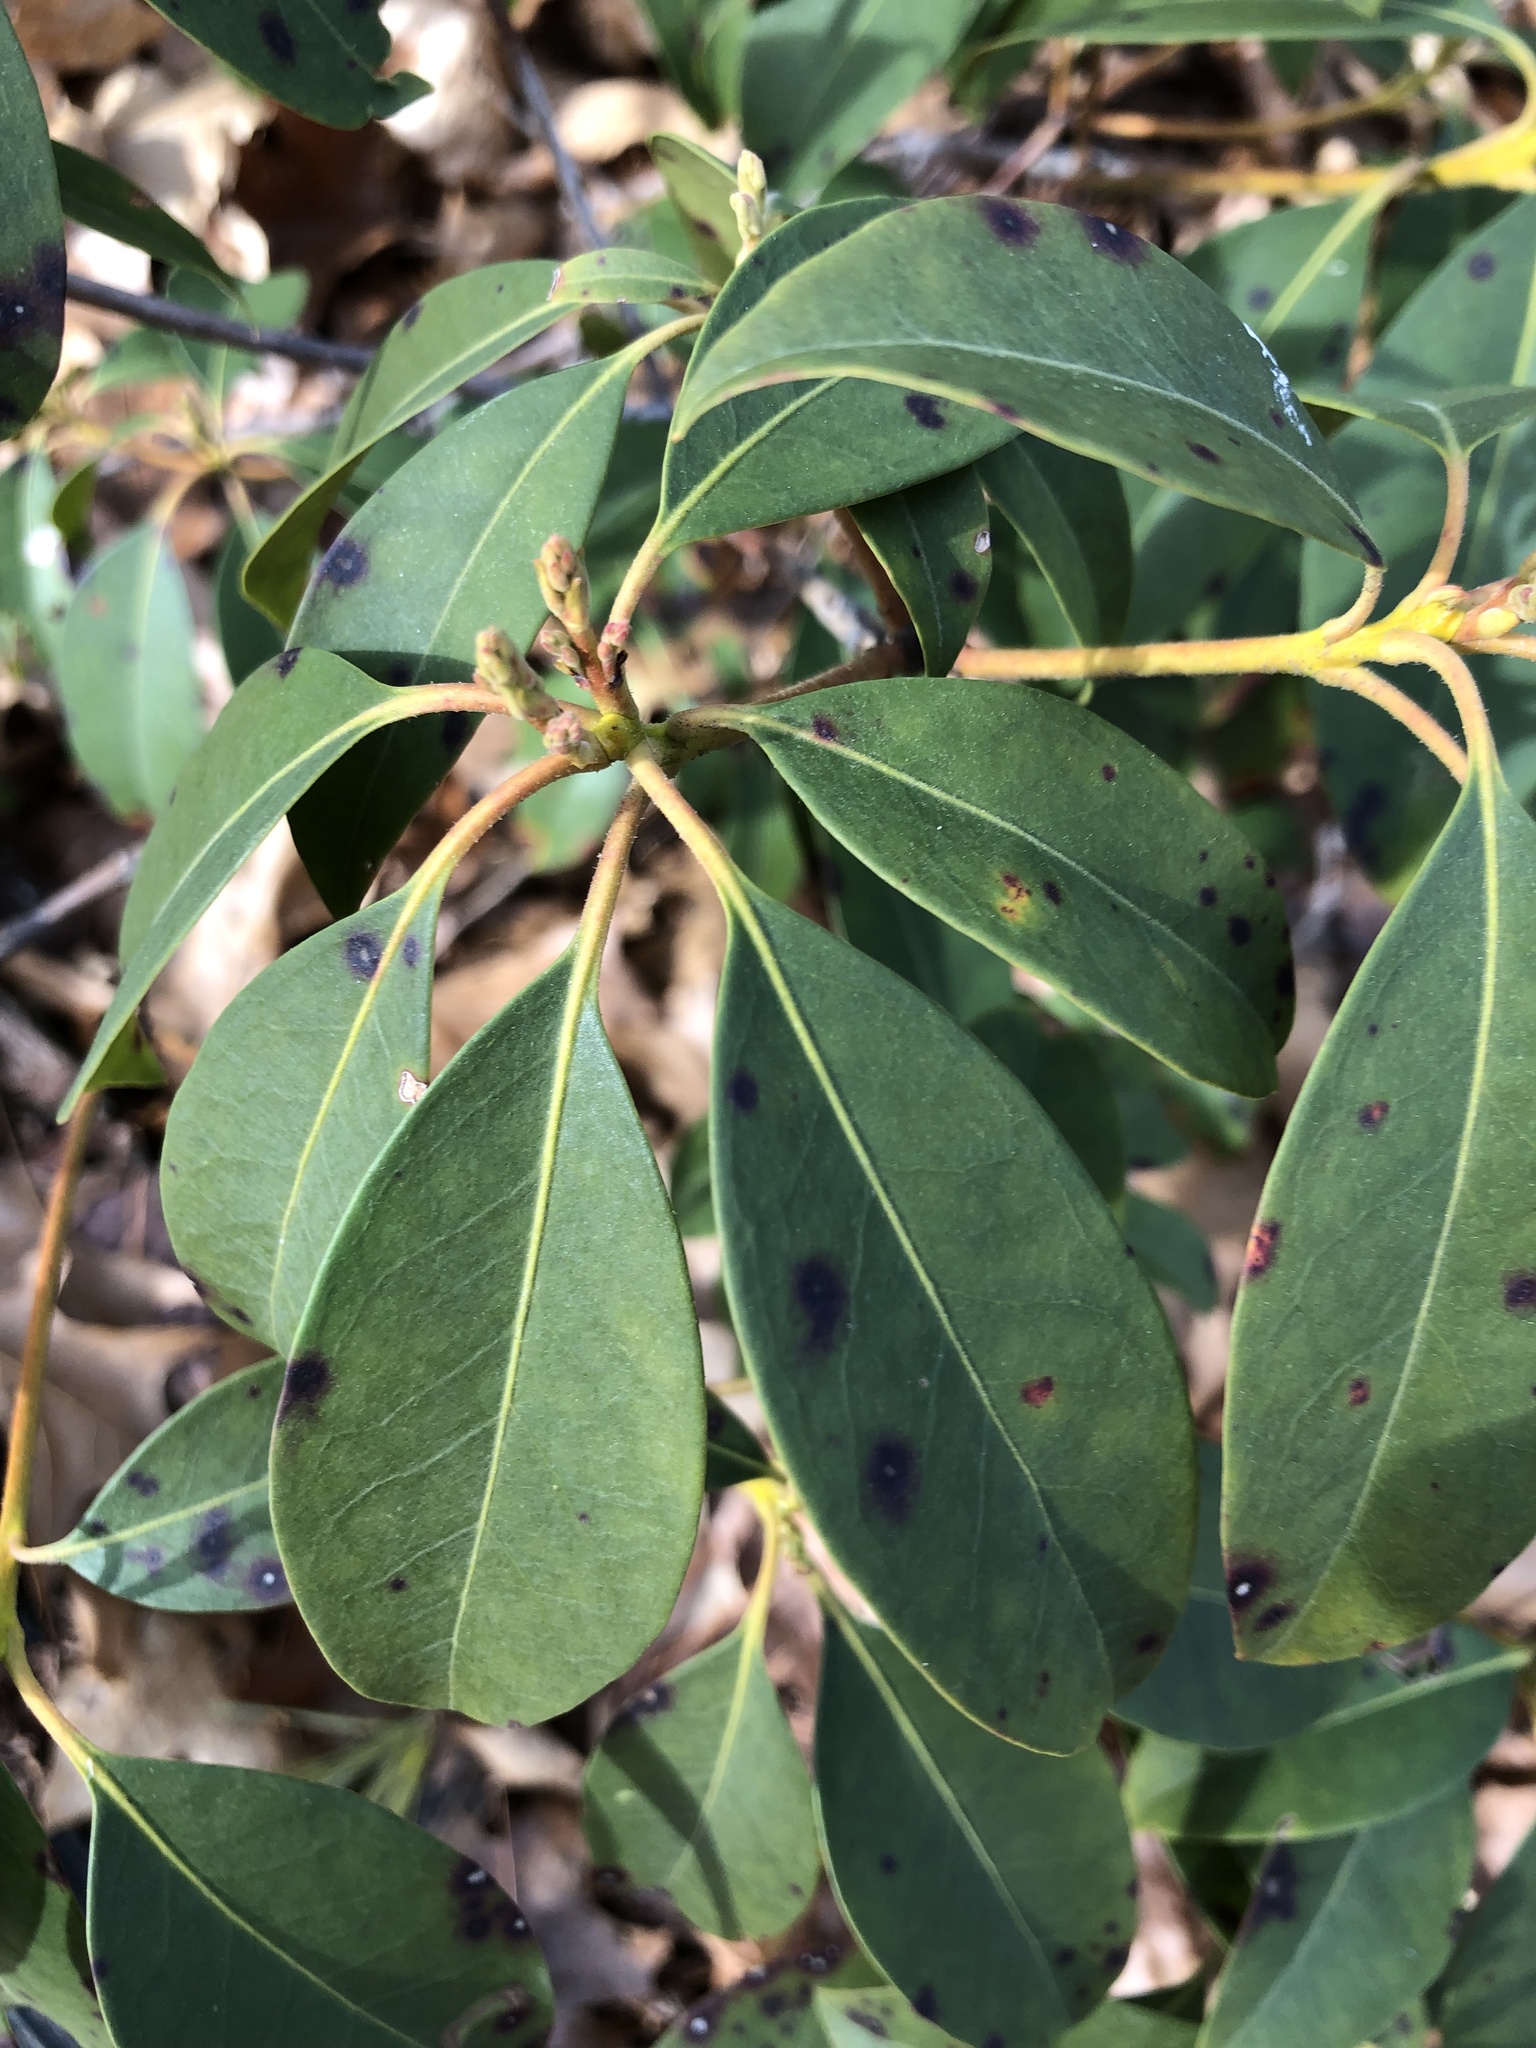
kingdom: Plantae
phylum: Tracheophyta
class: Magnoliopsida
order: Ericales
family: Ericaceae
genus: Kalmia
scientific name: Kalmia latifolia
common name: Mountain-laurel
